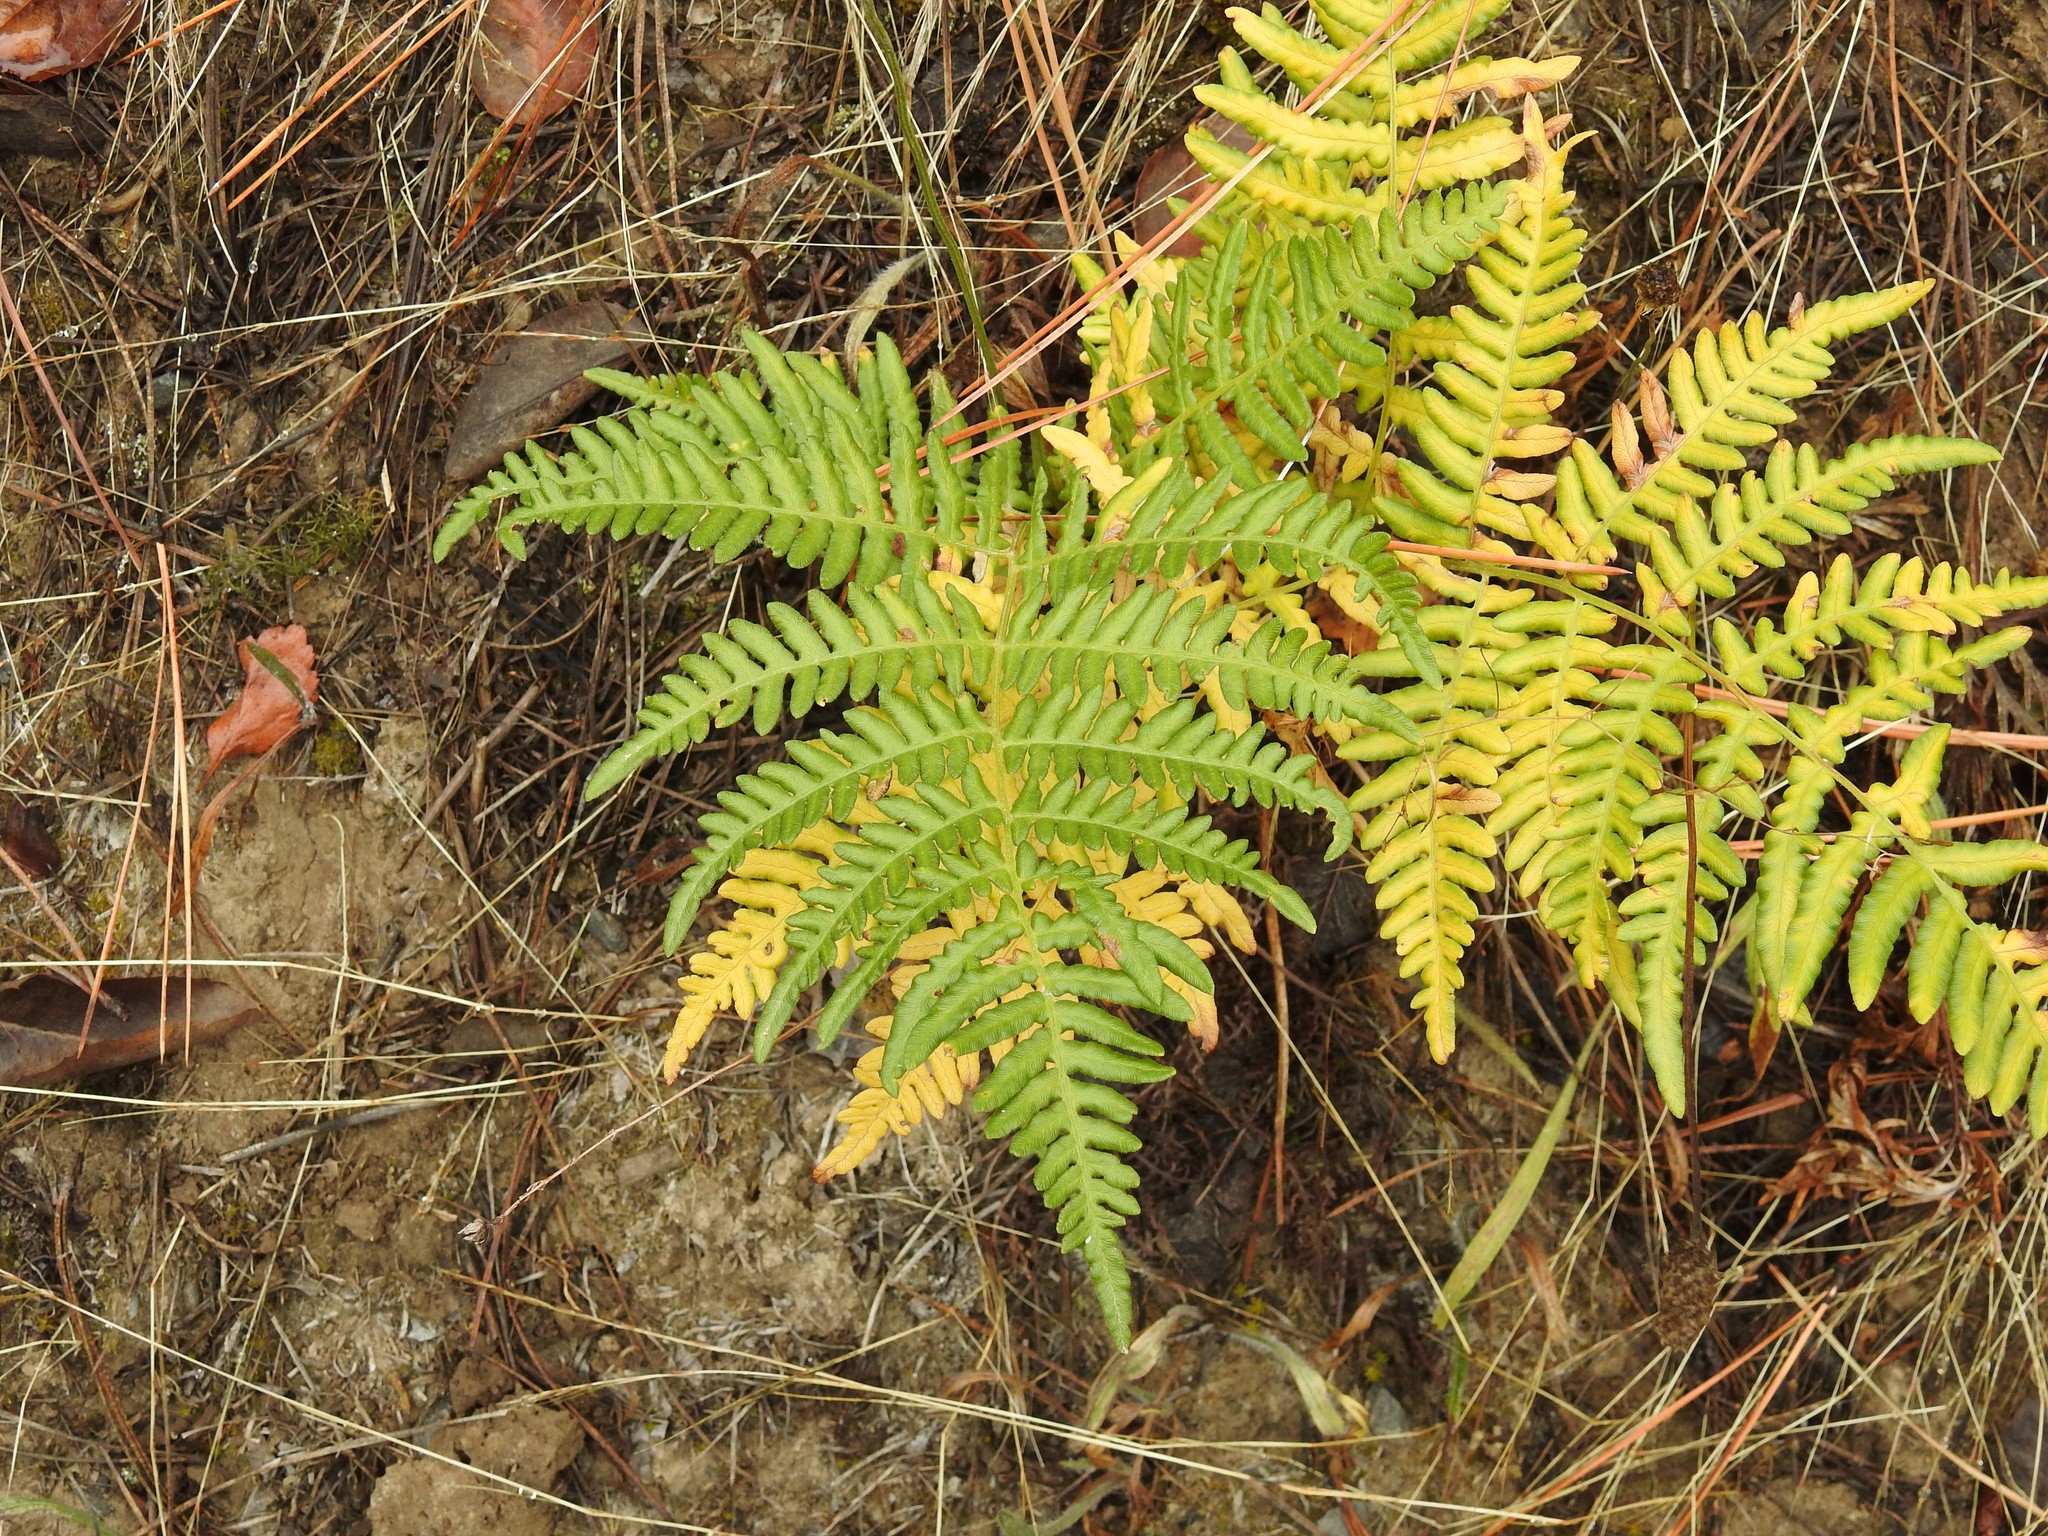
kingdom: Plantae
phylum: Tracheophyta
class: Polypodiopsida
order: Polypodiales
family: Dennstaedtiaceae
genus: Pteridium
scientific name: Pteridium aquilinum
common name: Bracken
